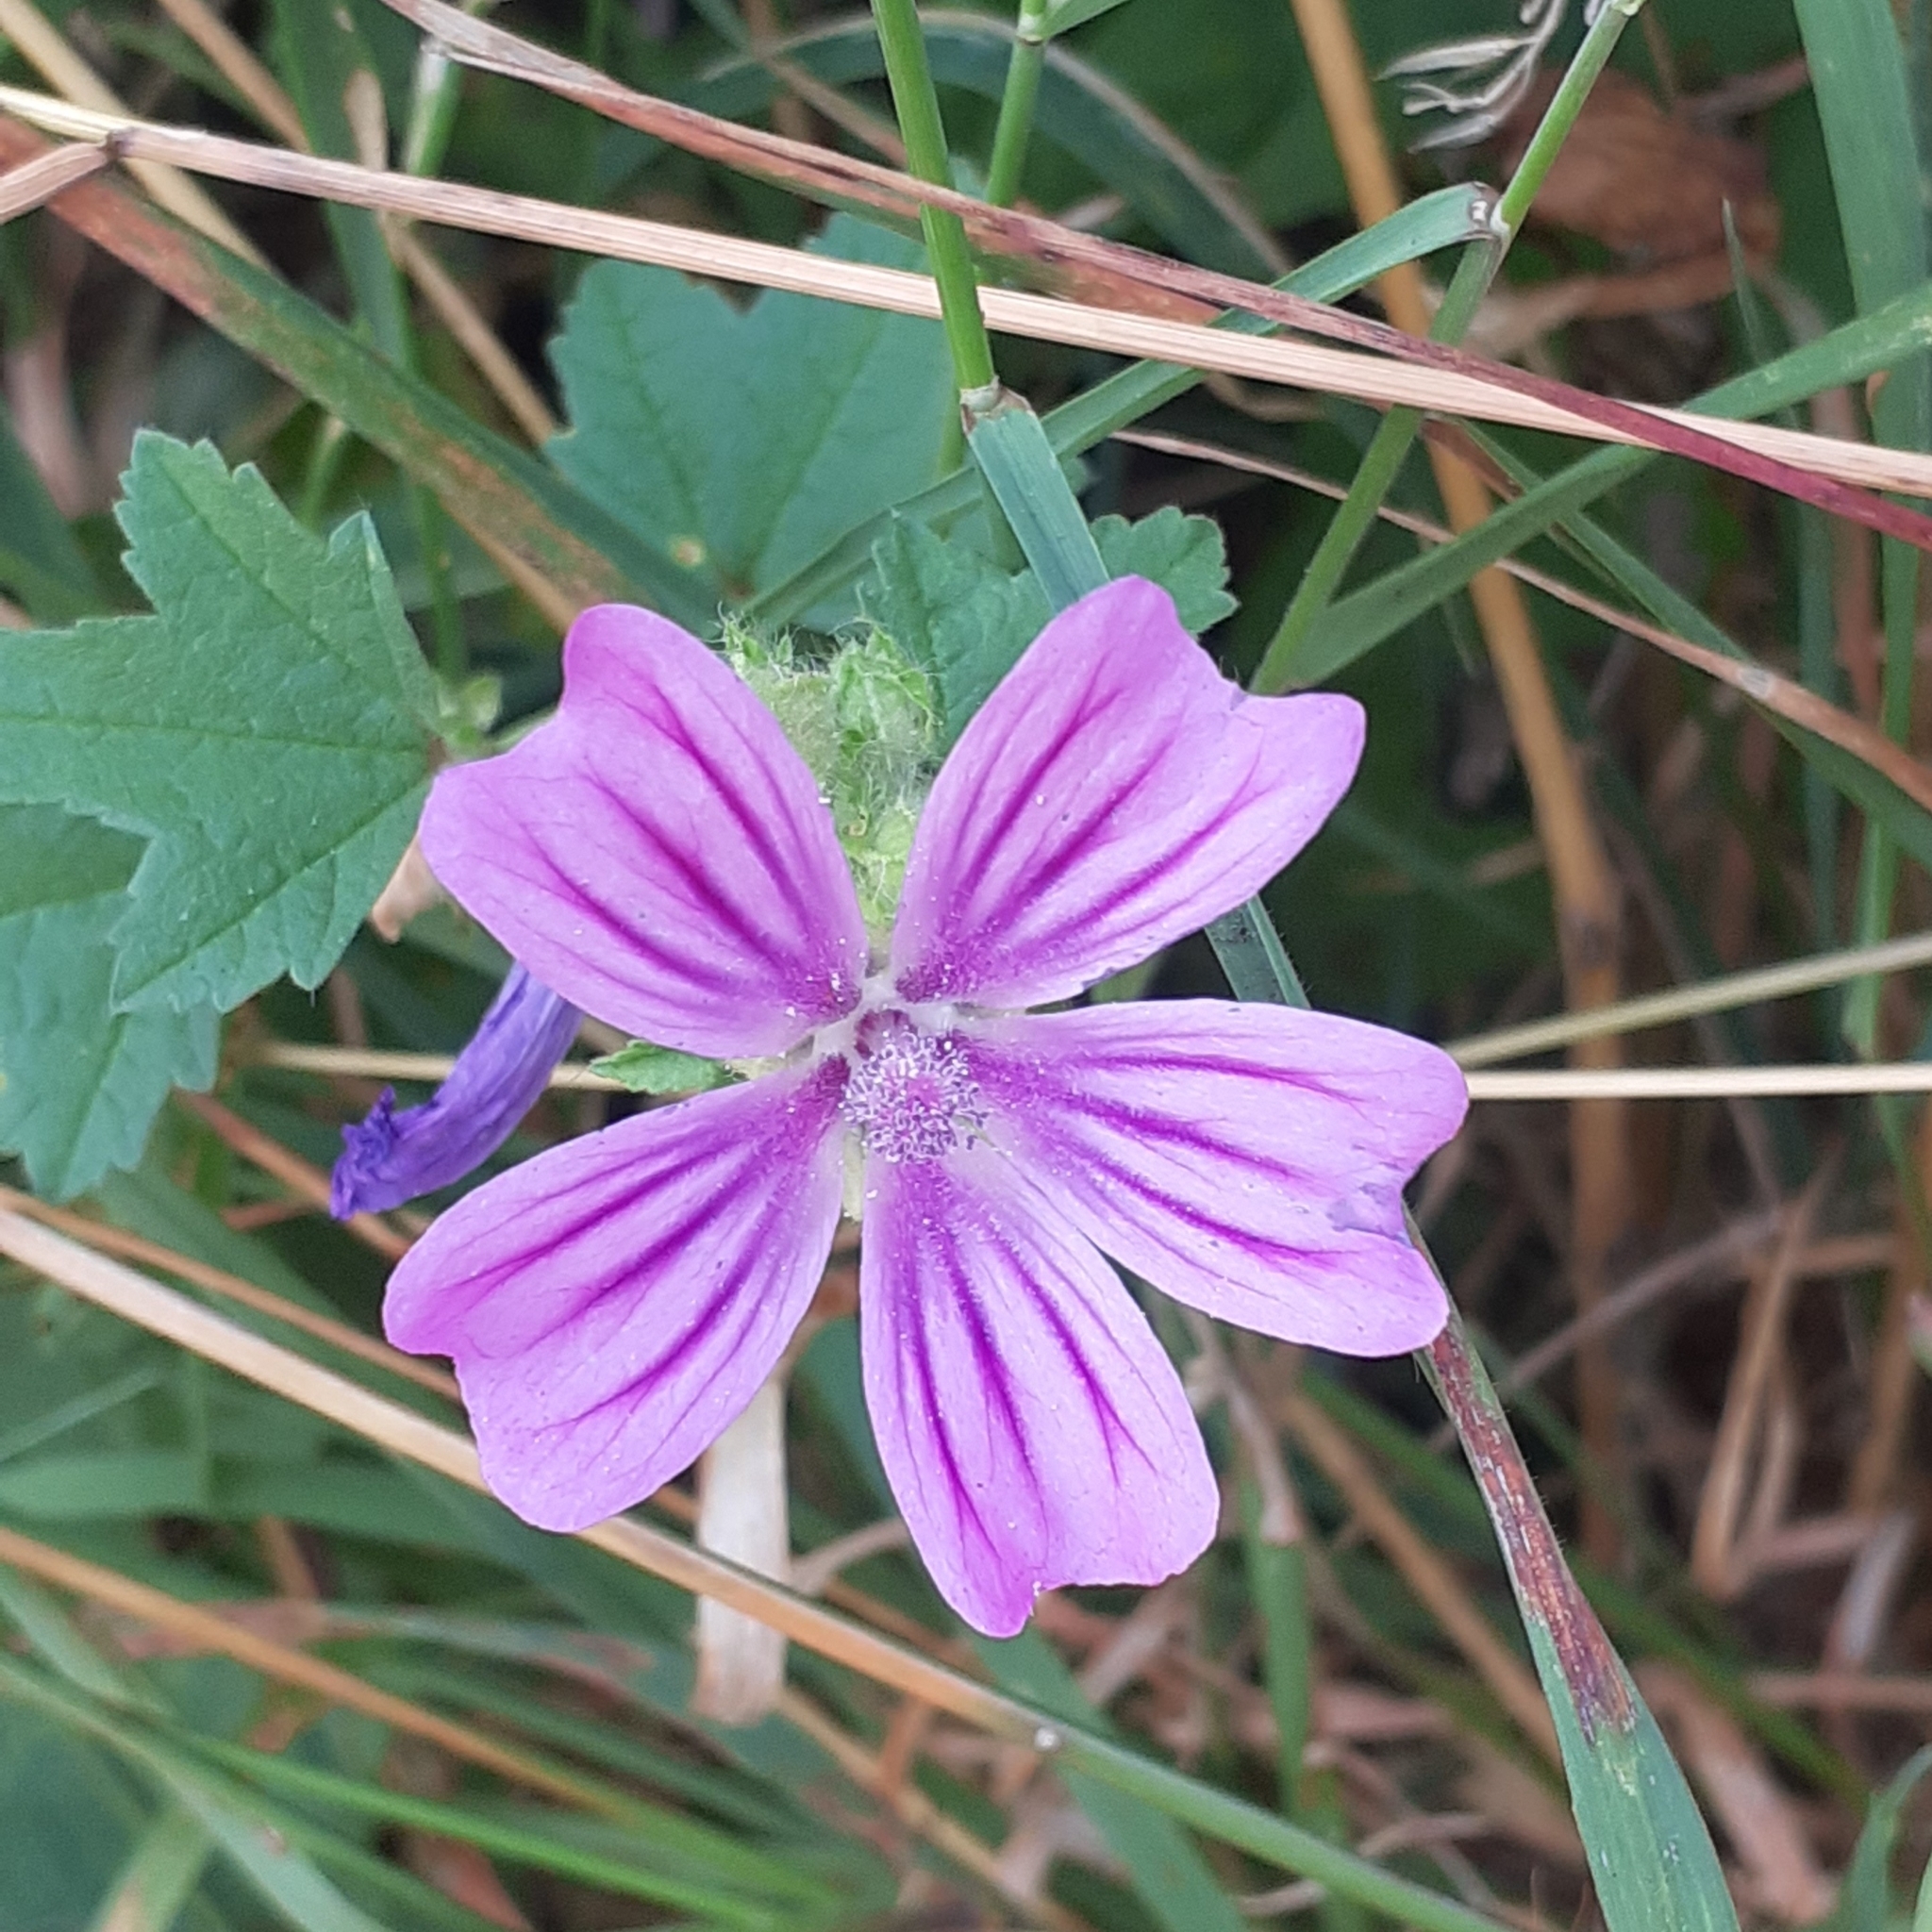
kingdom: Plantae
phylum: Tracheophyta
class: Magnoliopsida
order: Malvales
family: Malvaceae
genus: Malva
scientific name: Malva sylvestris
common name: Common mallow
